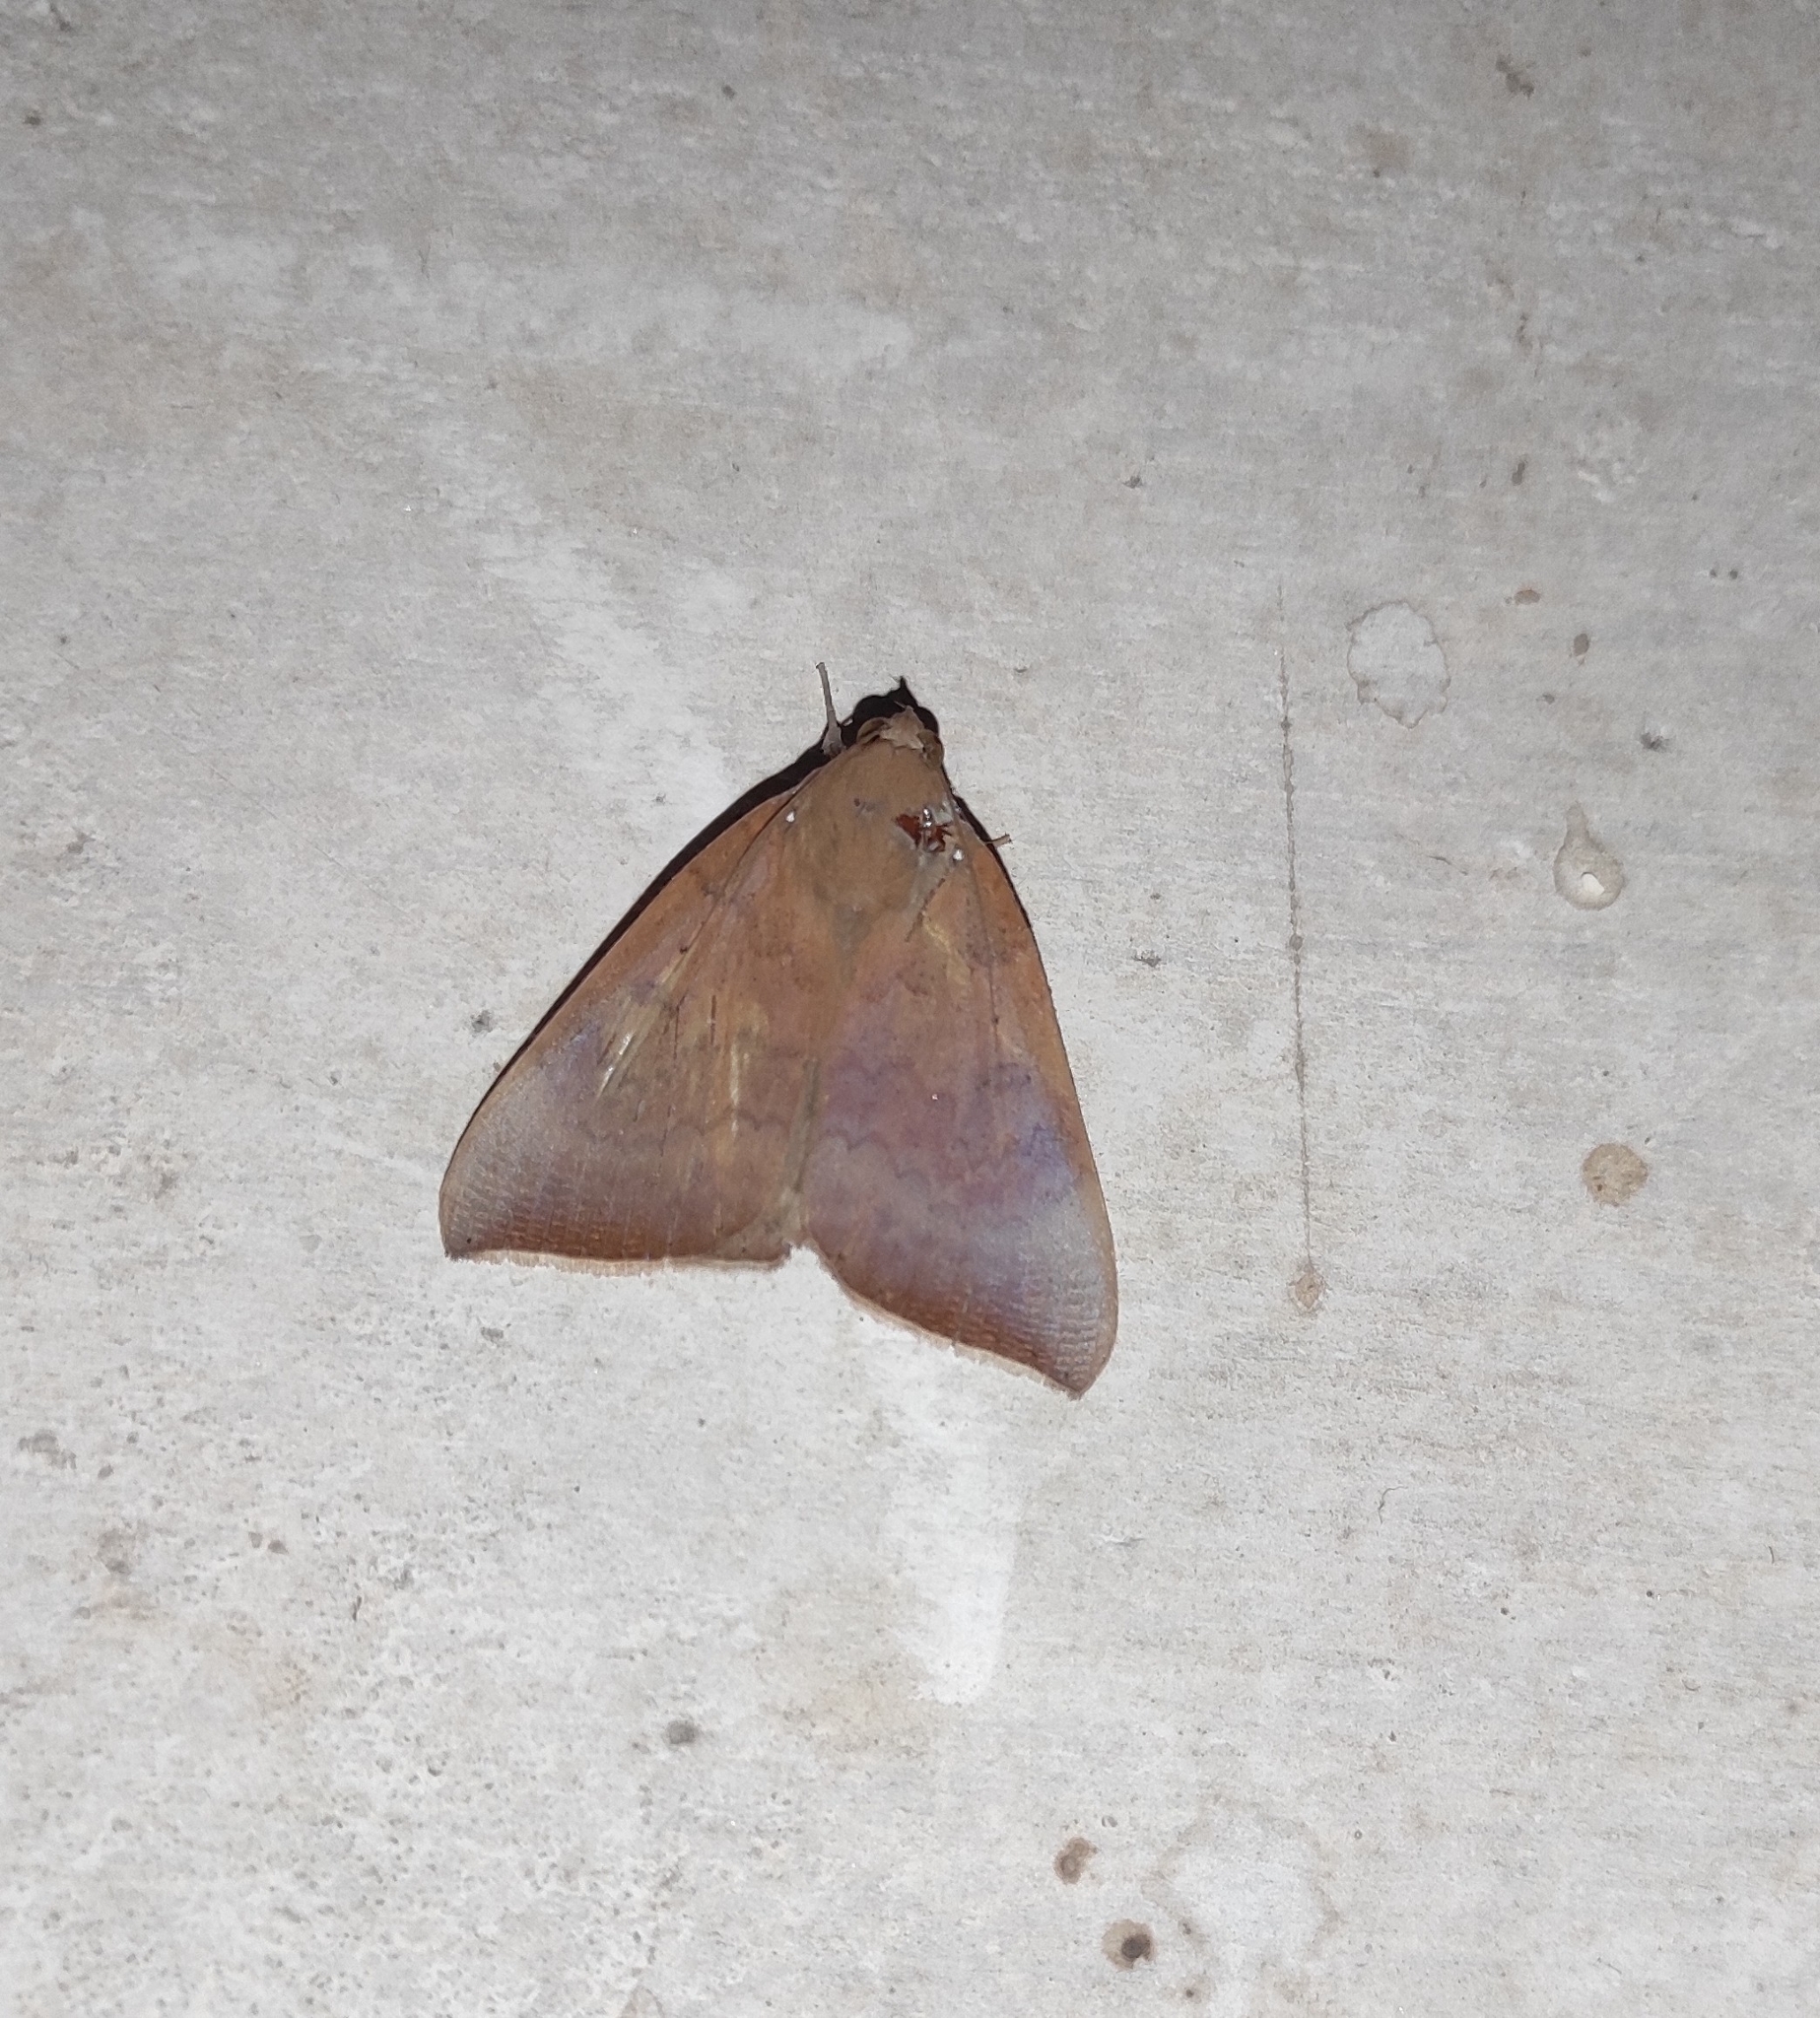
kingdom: Animalia
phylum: Arthropoda
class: Insecta
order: Lepidoptera
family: Erebidae
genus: Achaea
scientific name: Achaea serva
